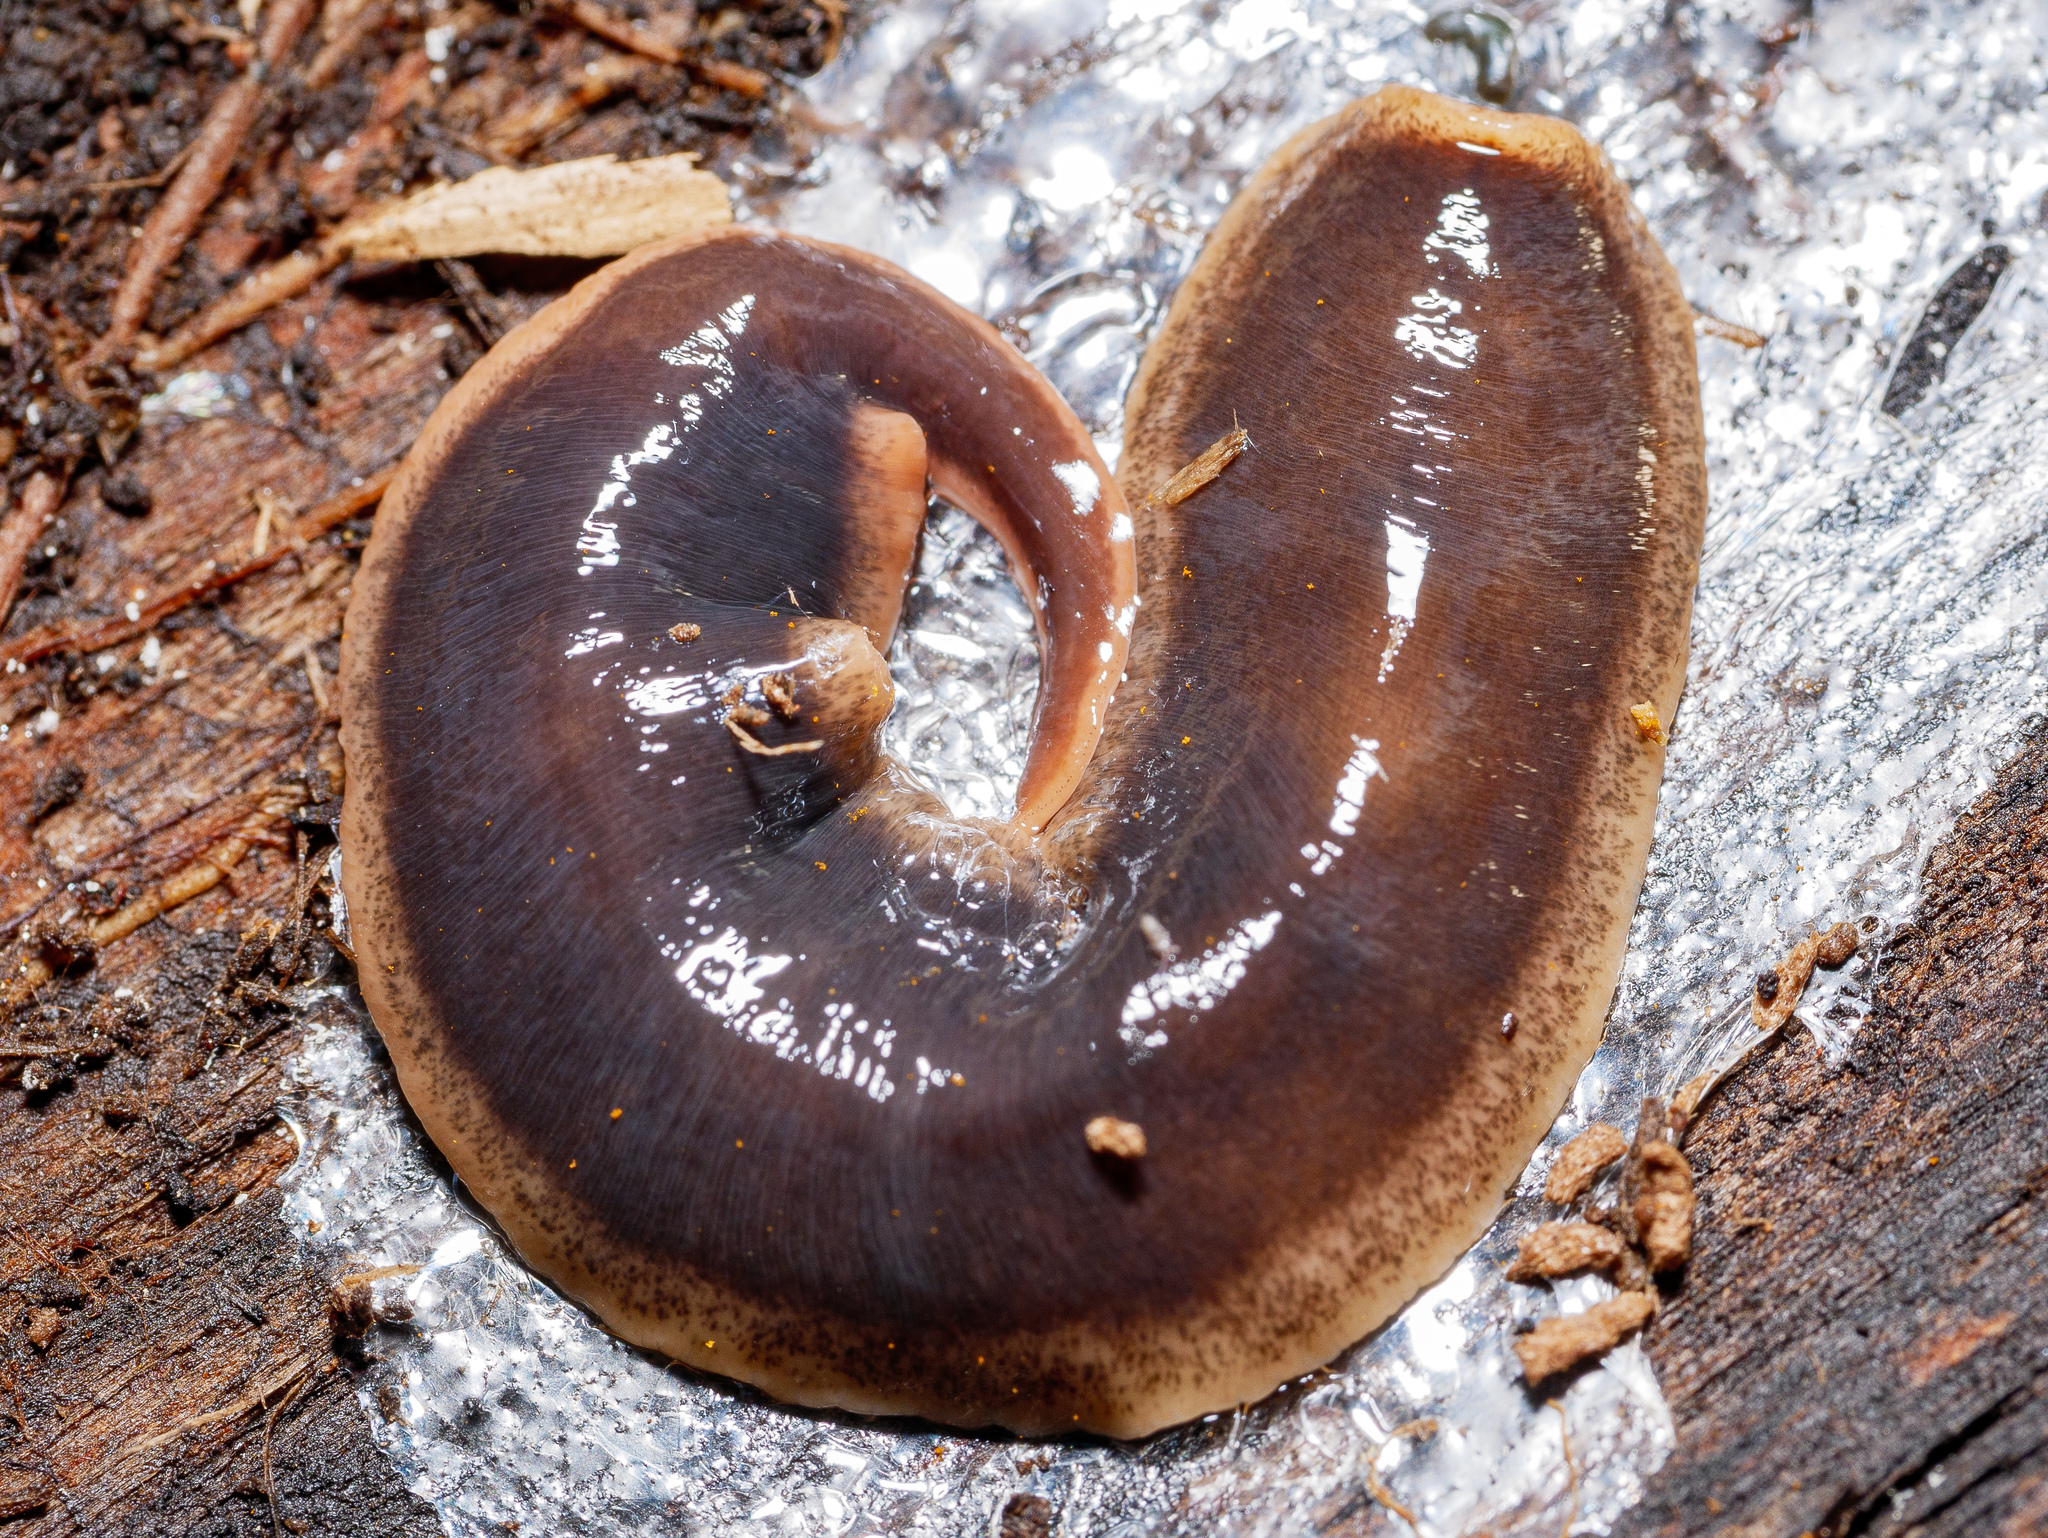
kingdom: Animalia
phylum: Platyhelminthes
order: Tricladida
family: Geoplanidae
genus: Arthurdendyus
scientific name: Arthurdendyus triangulatus
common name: New zealand flatworm
